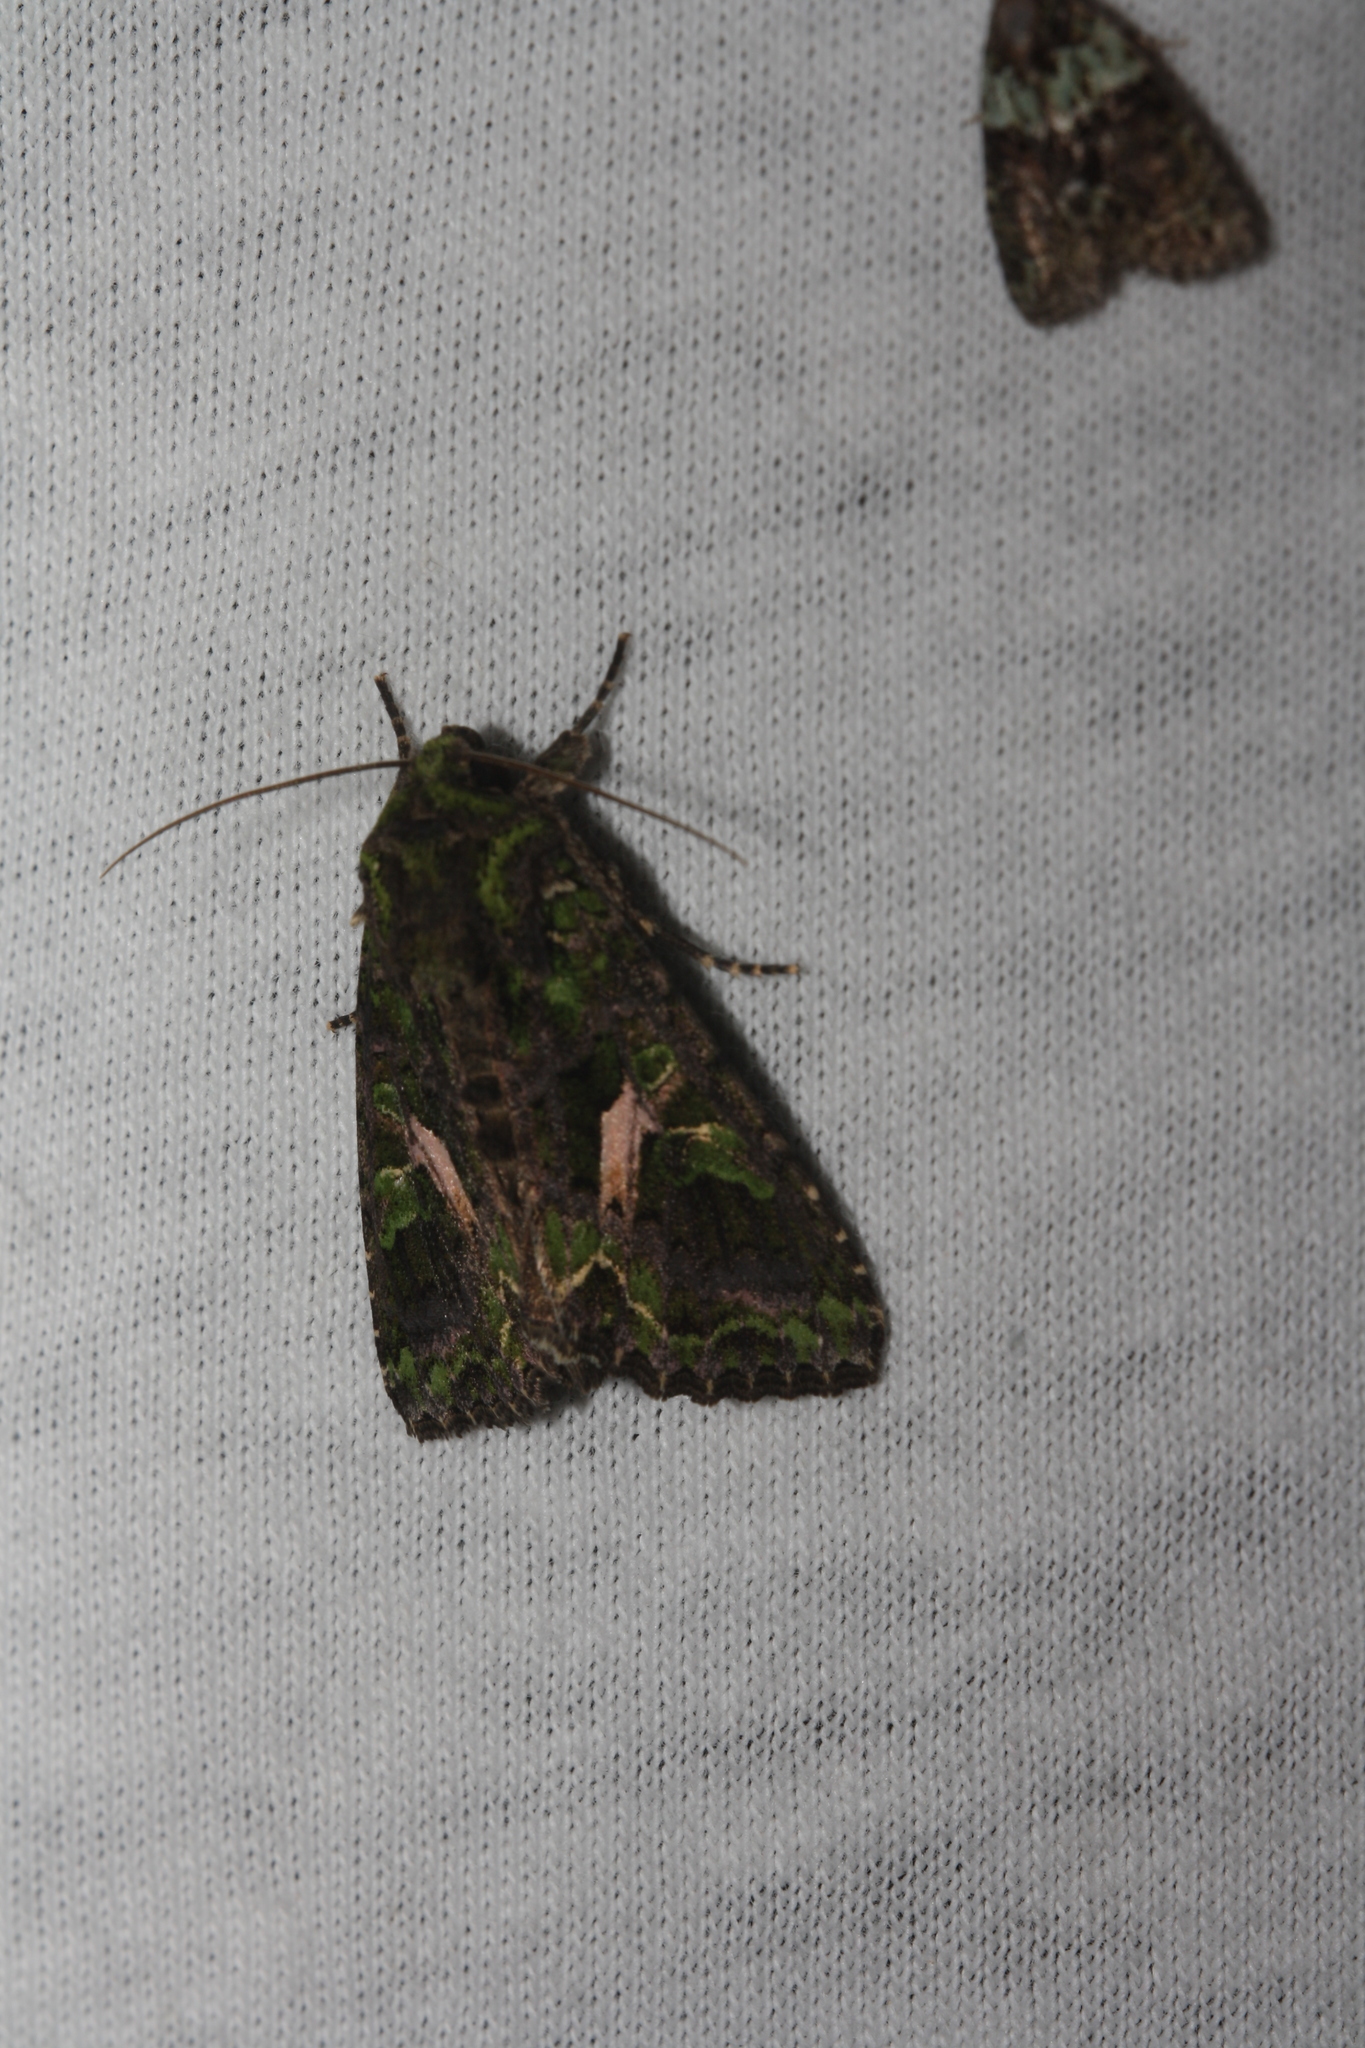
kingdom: Animalia
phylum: Arthropoda
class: Insecta
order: Lepidoptera
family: Noctuidae
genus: Trachea
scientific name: Trachea atriplicis
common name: Orache moth
